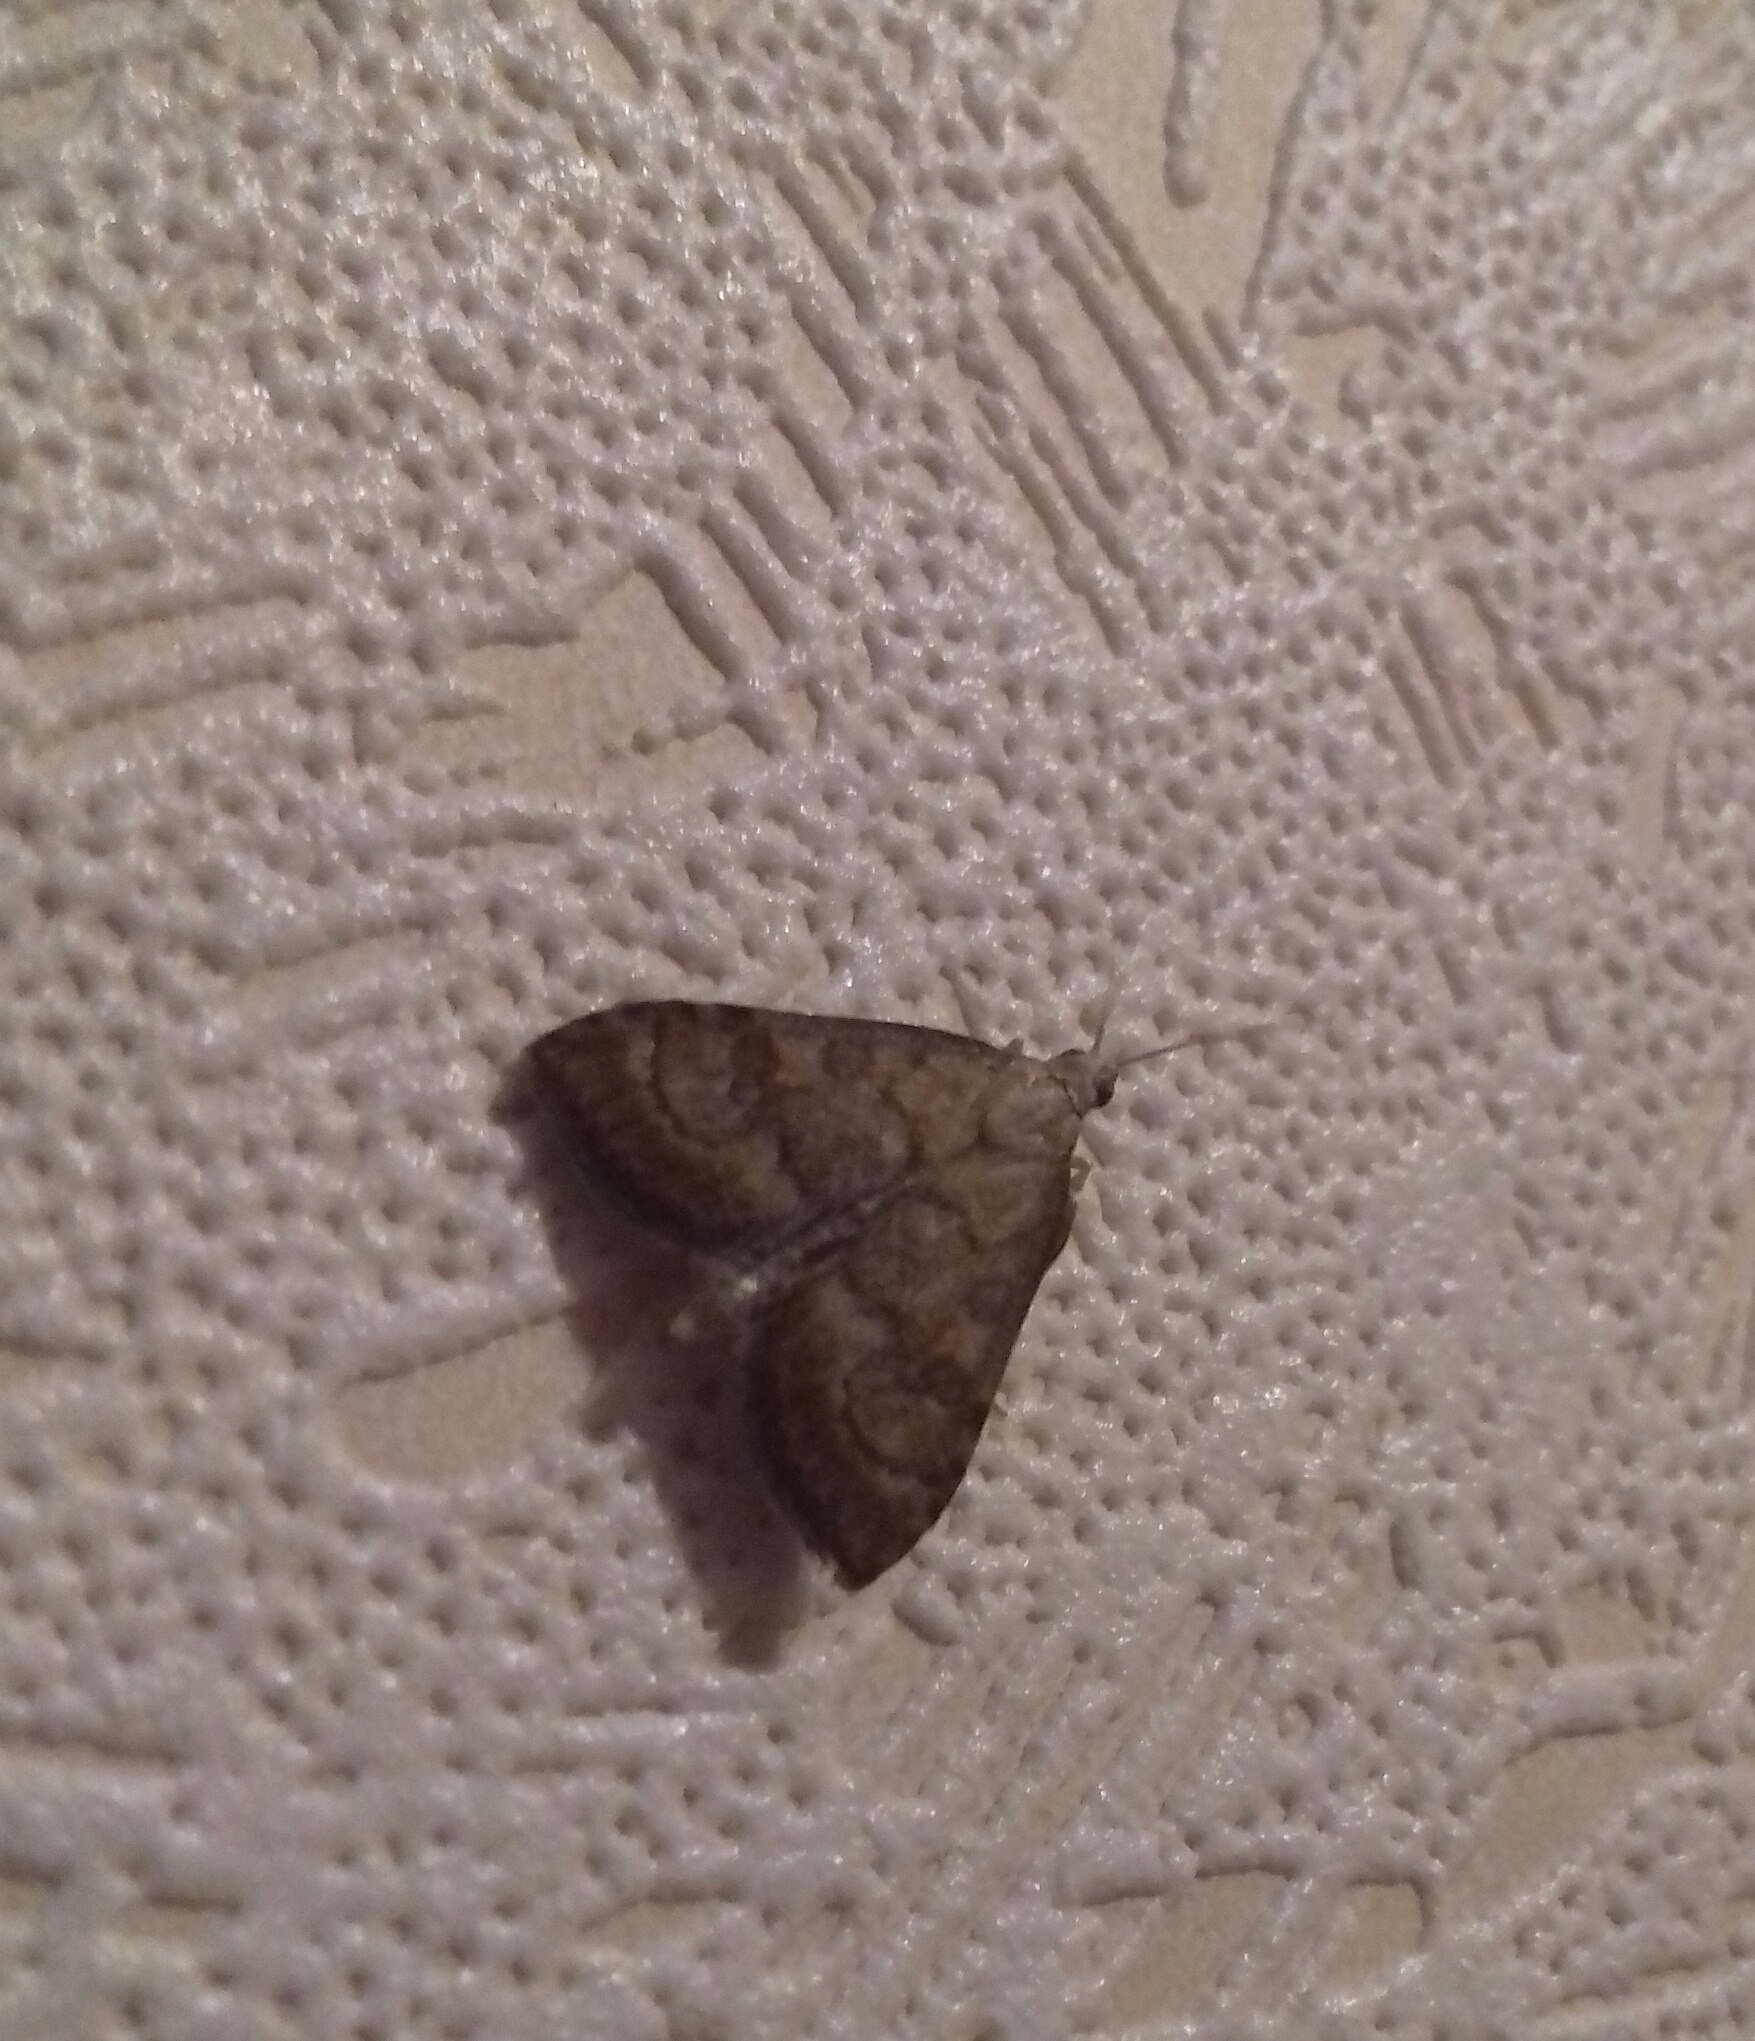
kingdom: Animalia
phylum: Arthropoda
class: Insecta
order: Lepidoptera
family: Crambidae
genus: Udea
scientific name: Udea fulvalis
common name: Fulvous pearl
